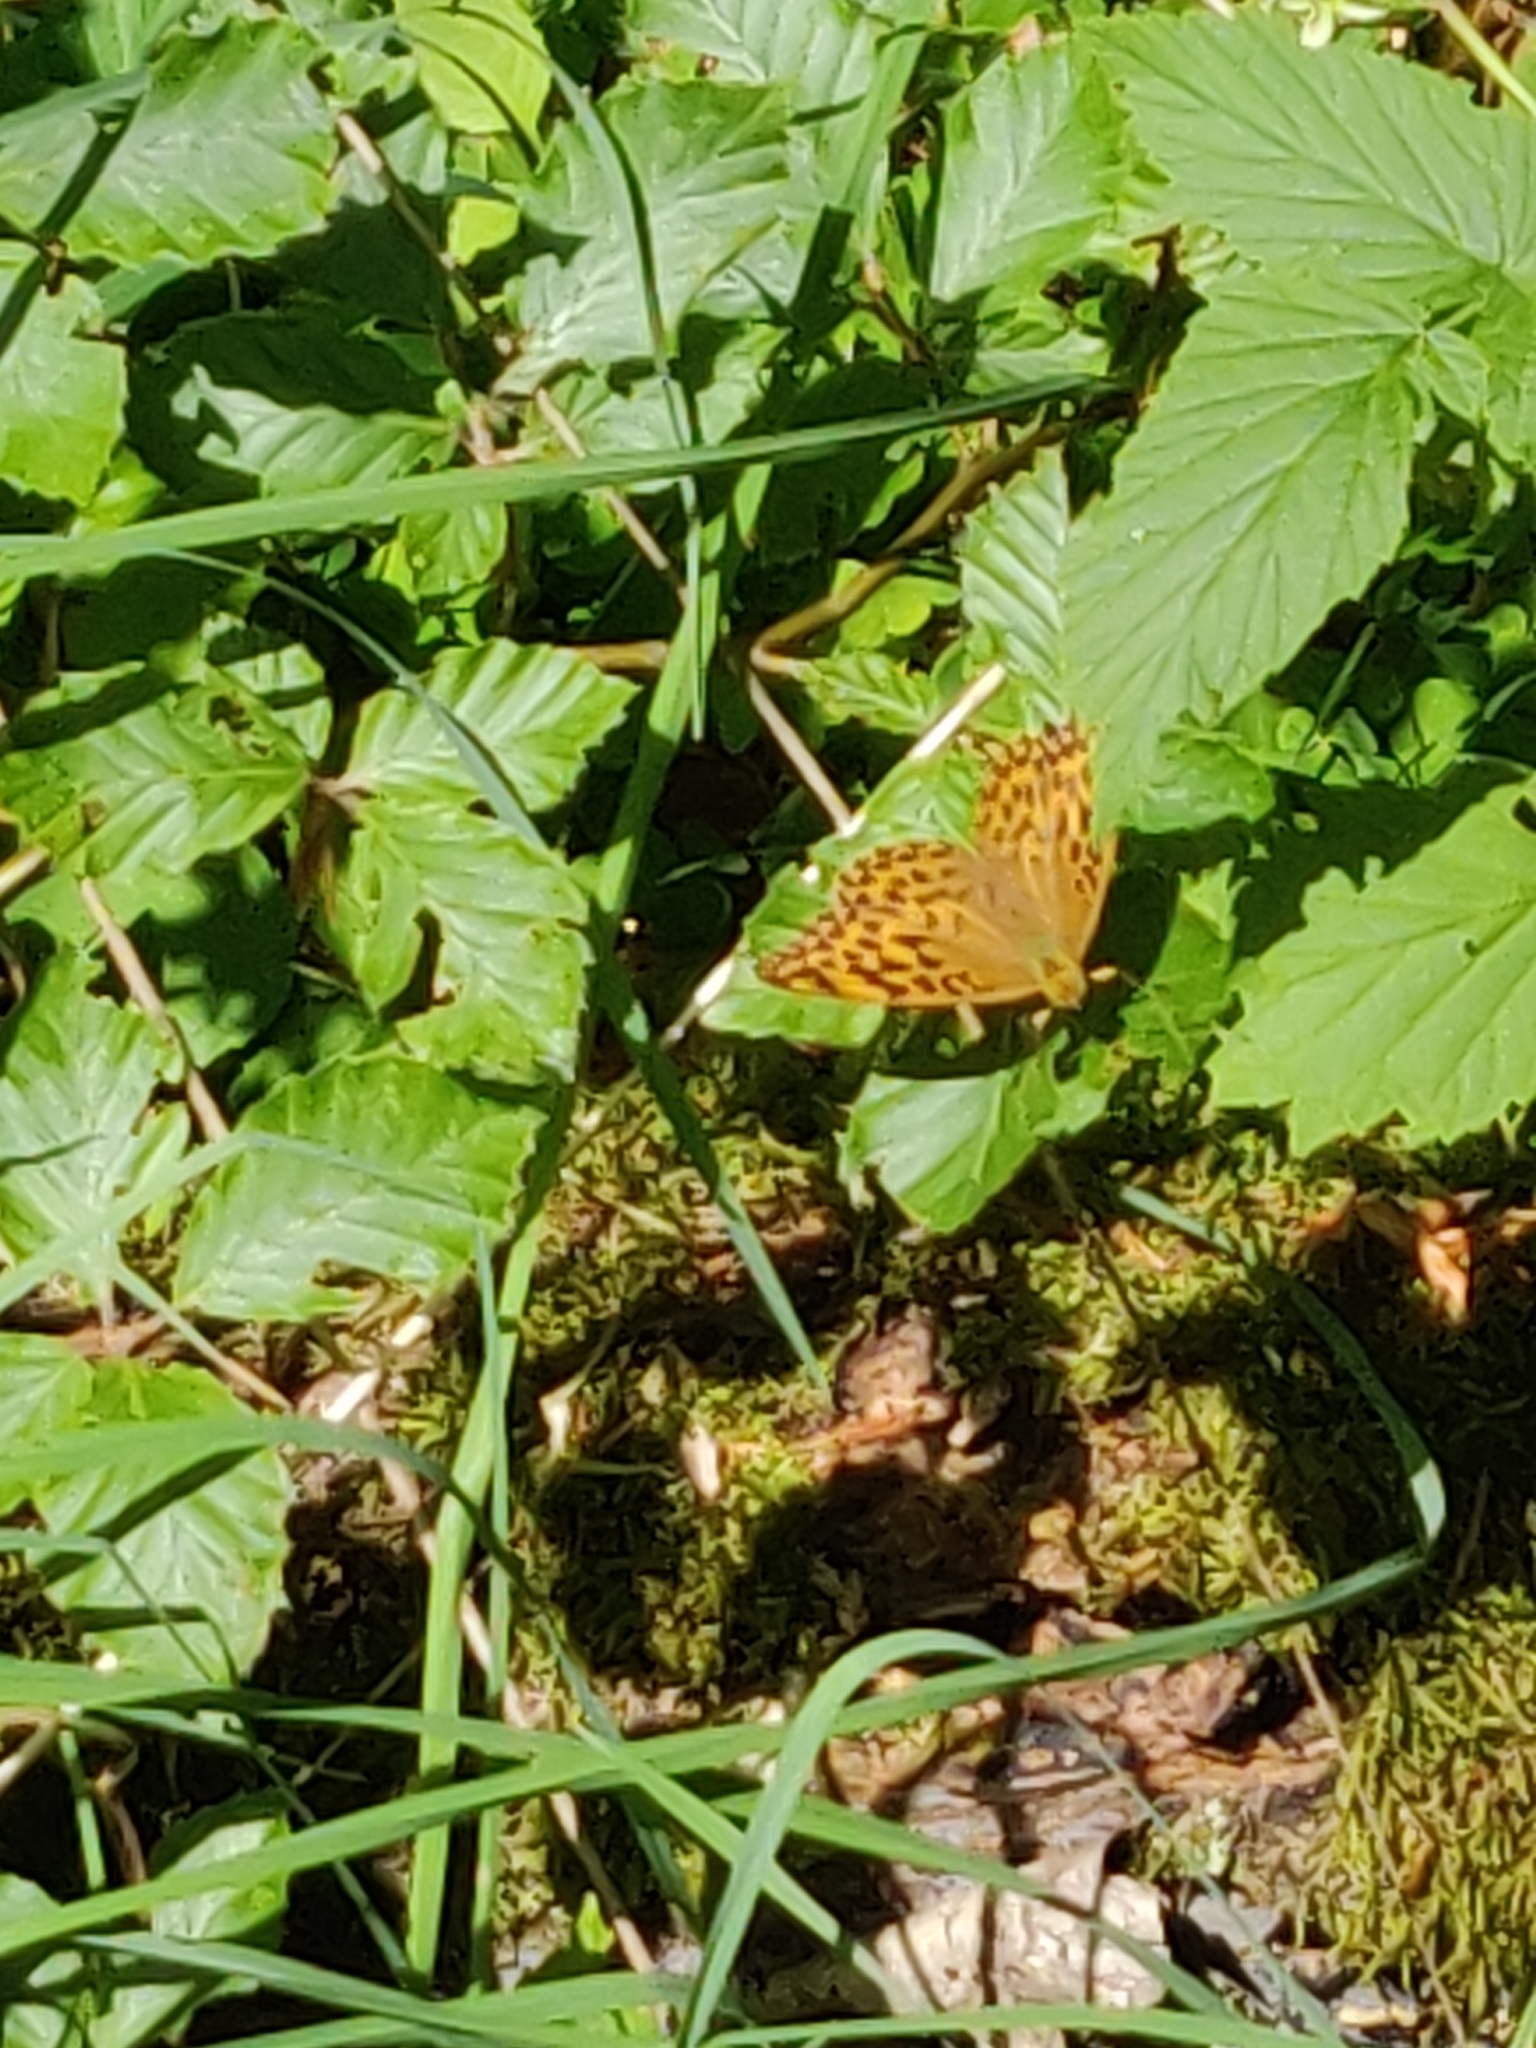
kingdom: Animalia
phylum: Arthropoda
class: Insecta
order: Lepidoptera
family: Nymphalidae
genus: Argynnis
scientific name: Argynnis paphia
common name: Silver-washed fritillary
